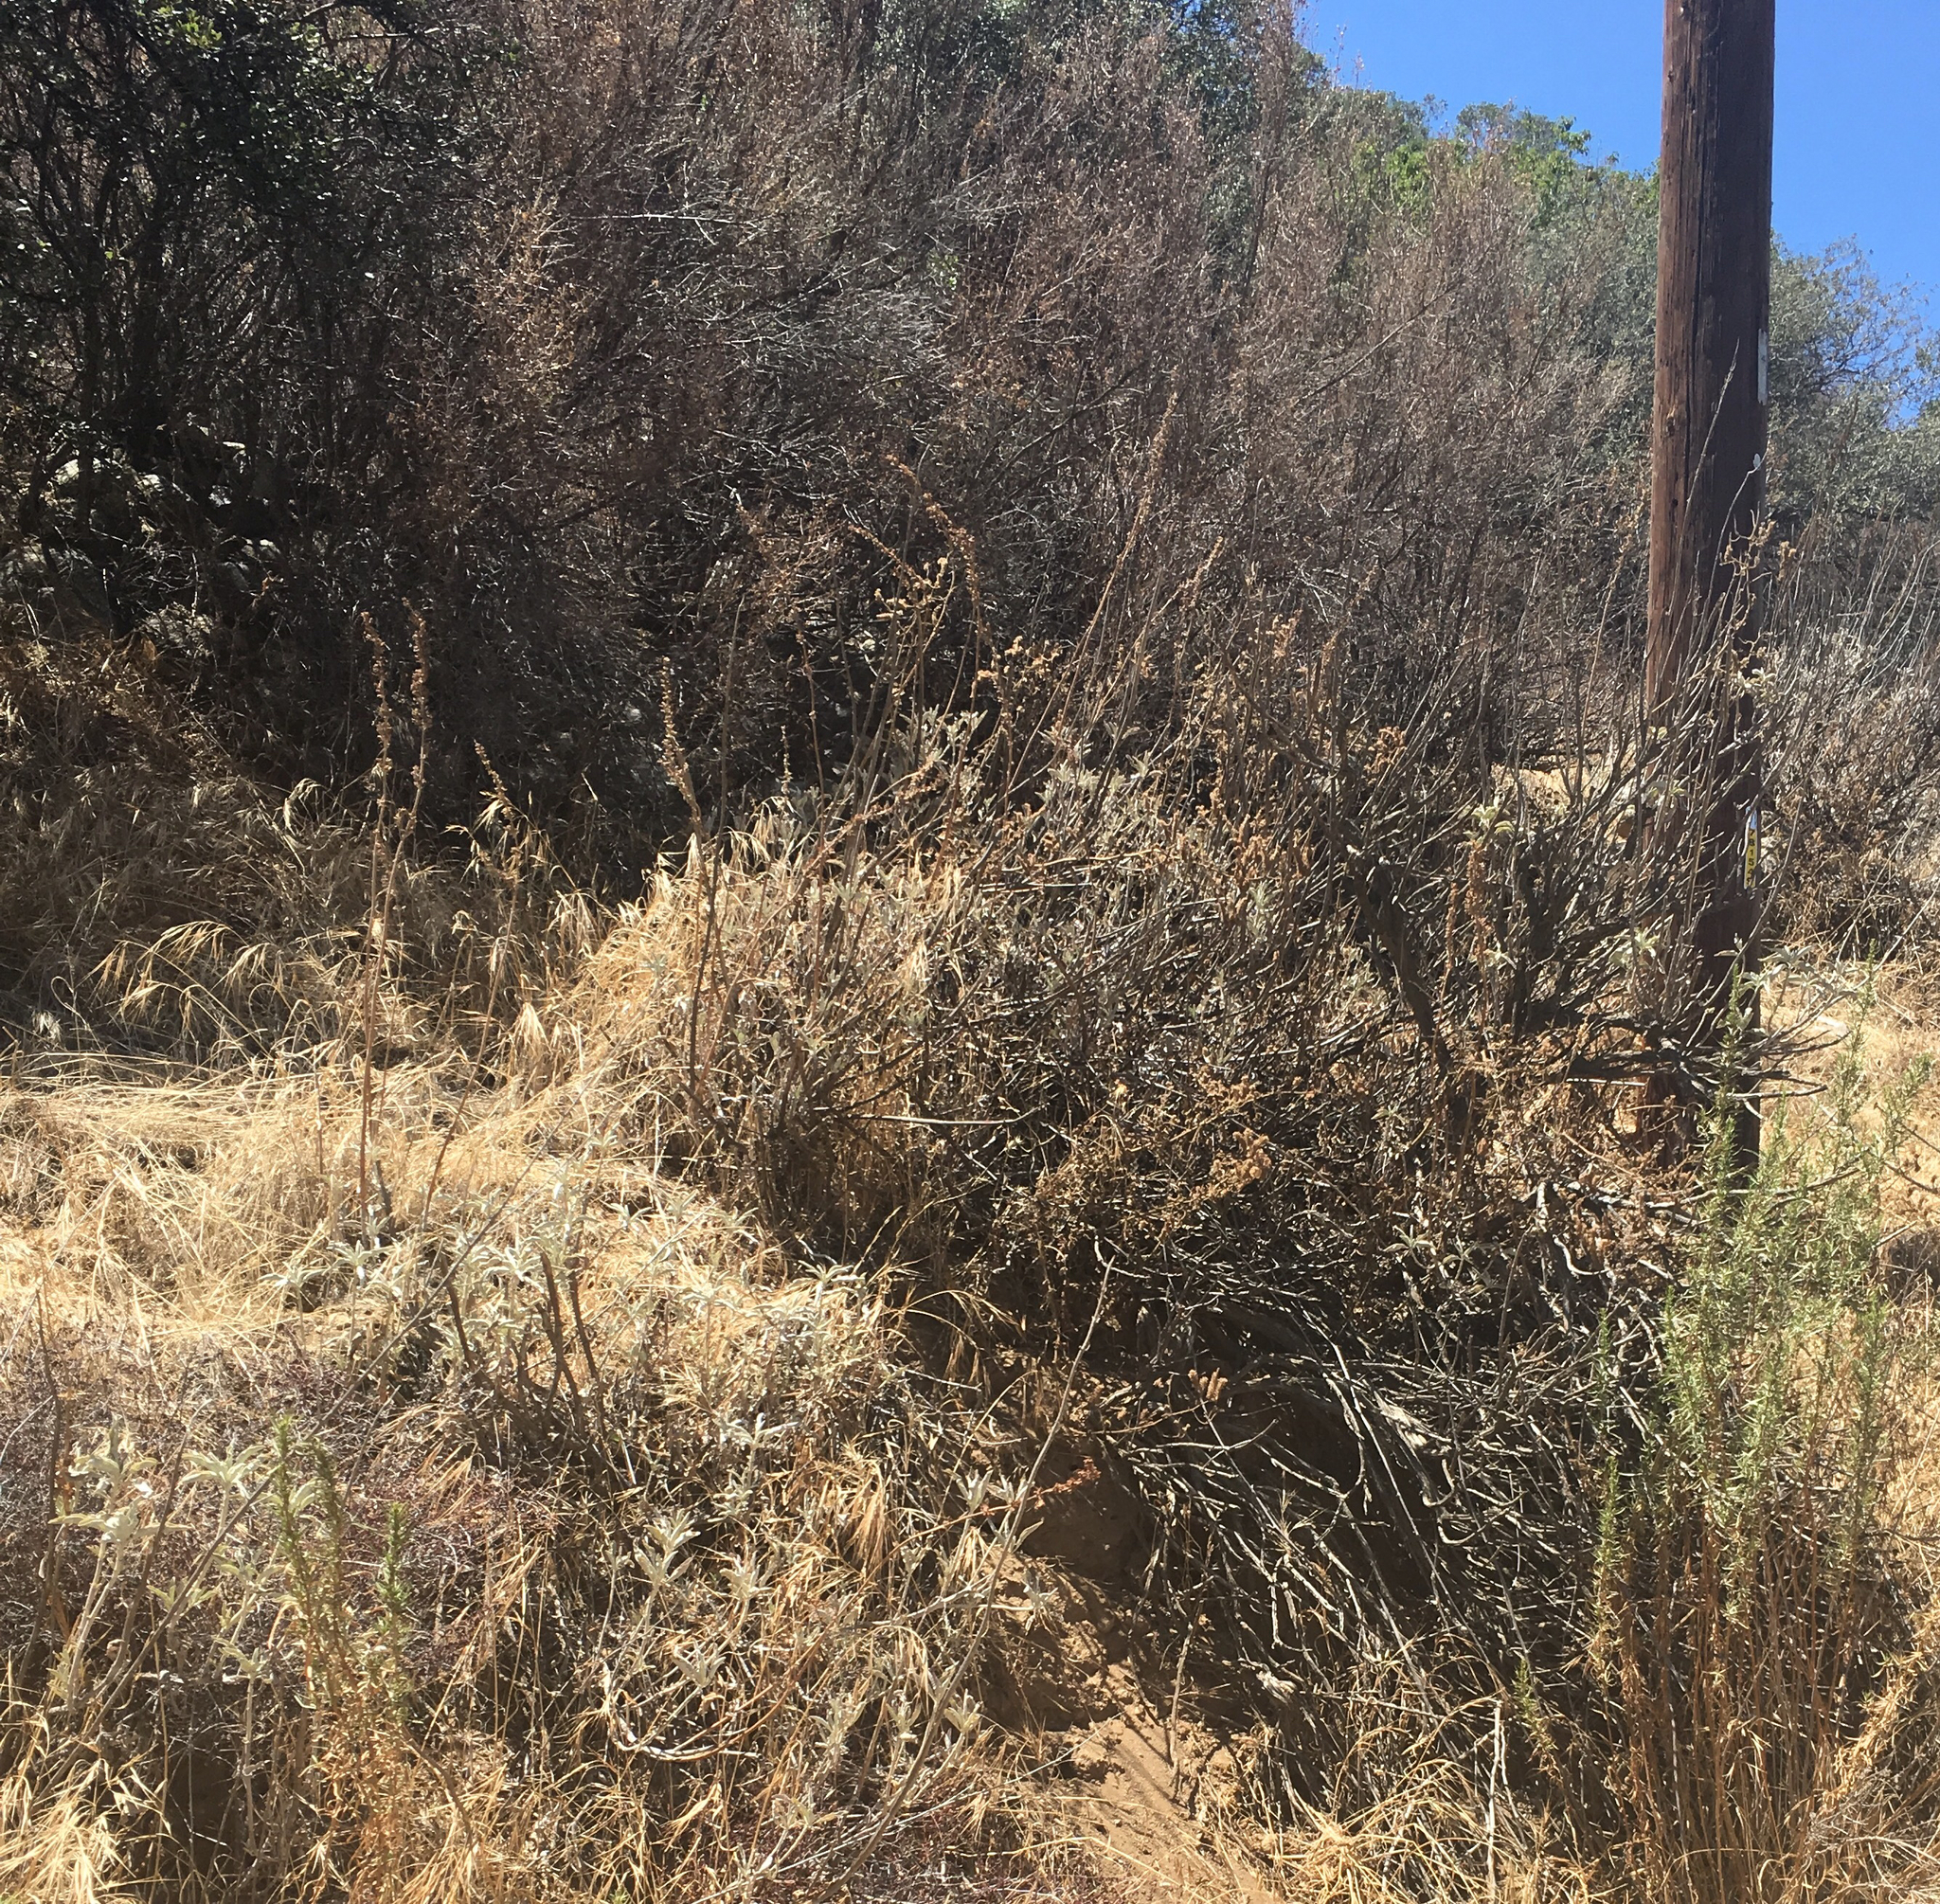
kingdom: Plantae
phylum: Tracheophyta
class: Magnoliopsida
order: Lamiales
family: Lamiaceae
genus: Salvia
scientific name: Salvia apiana
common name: White sage
